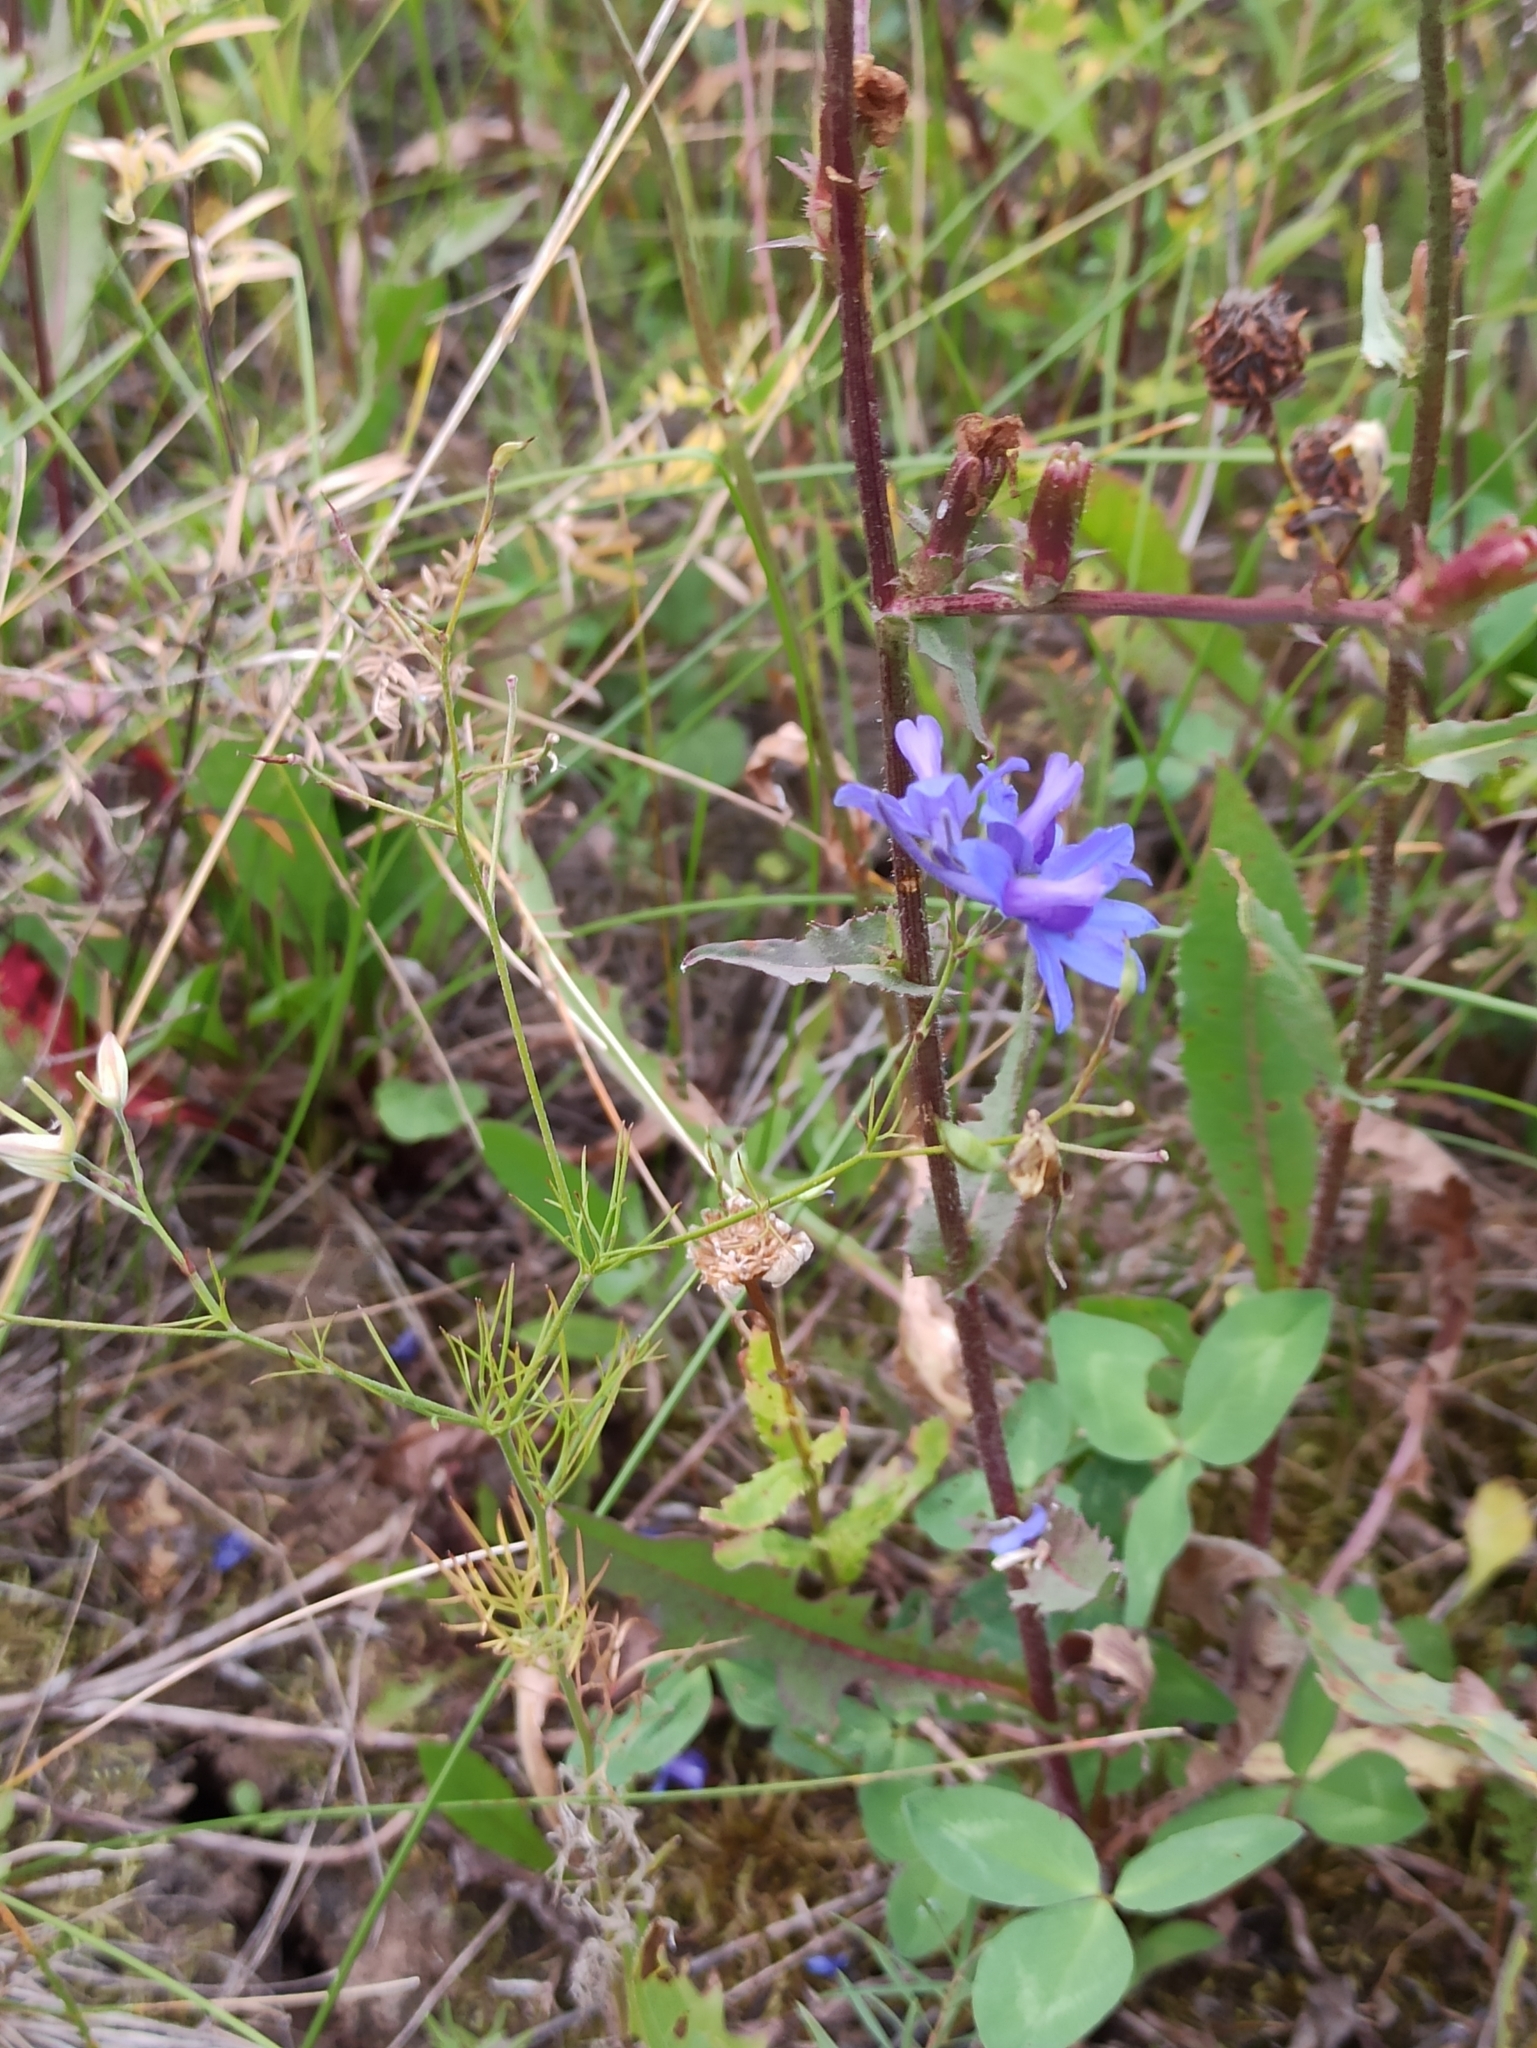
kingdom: Plantae
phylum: Tracheophyta
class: Magnoliopsida
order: Ranunculales
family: Ranunculaceae
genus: Delphinium
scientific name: Delphinium consolida
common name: Branching larkspur
